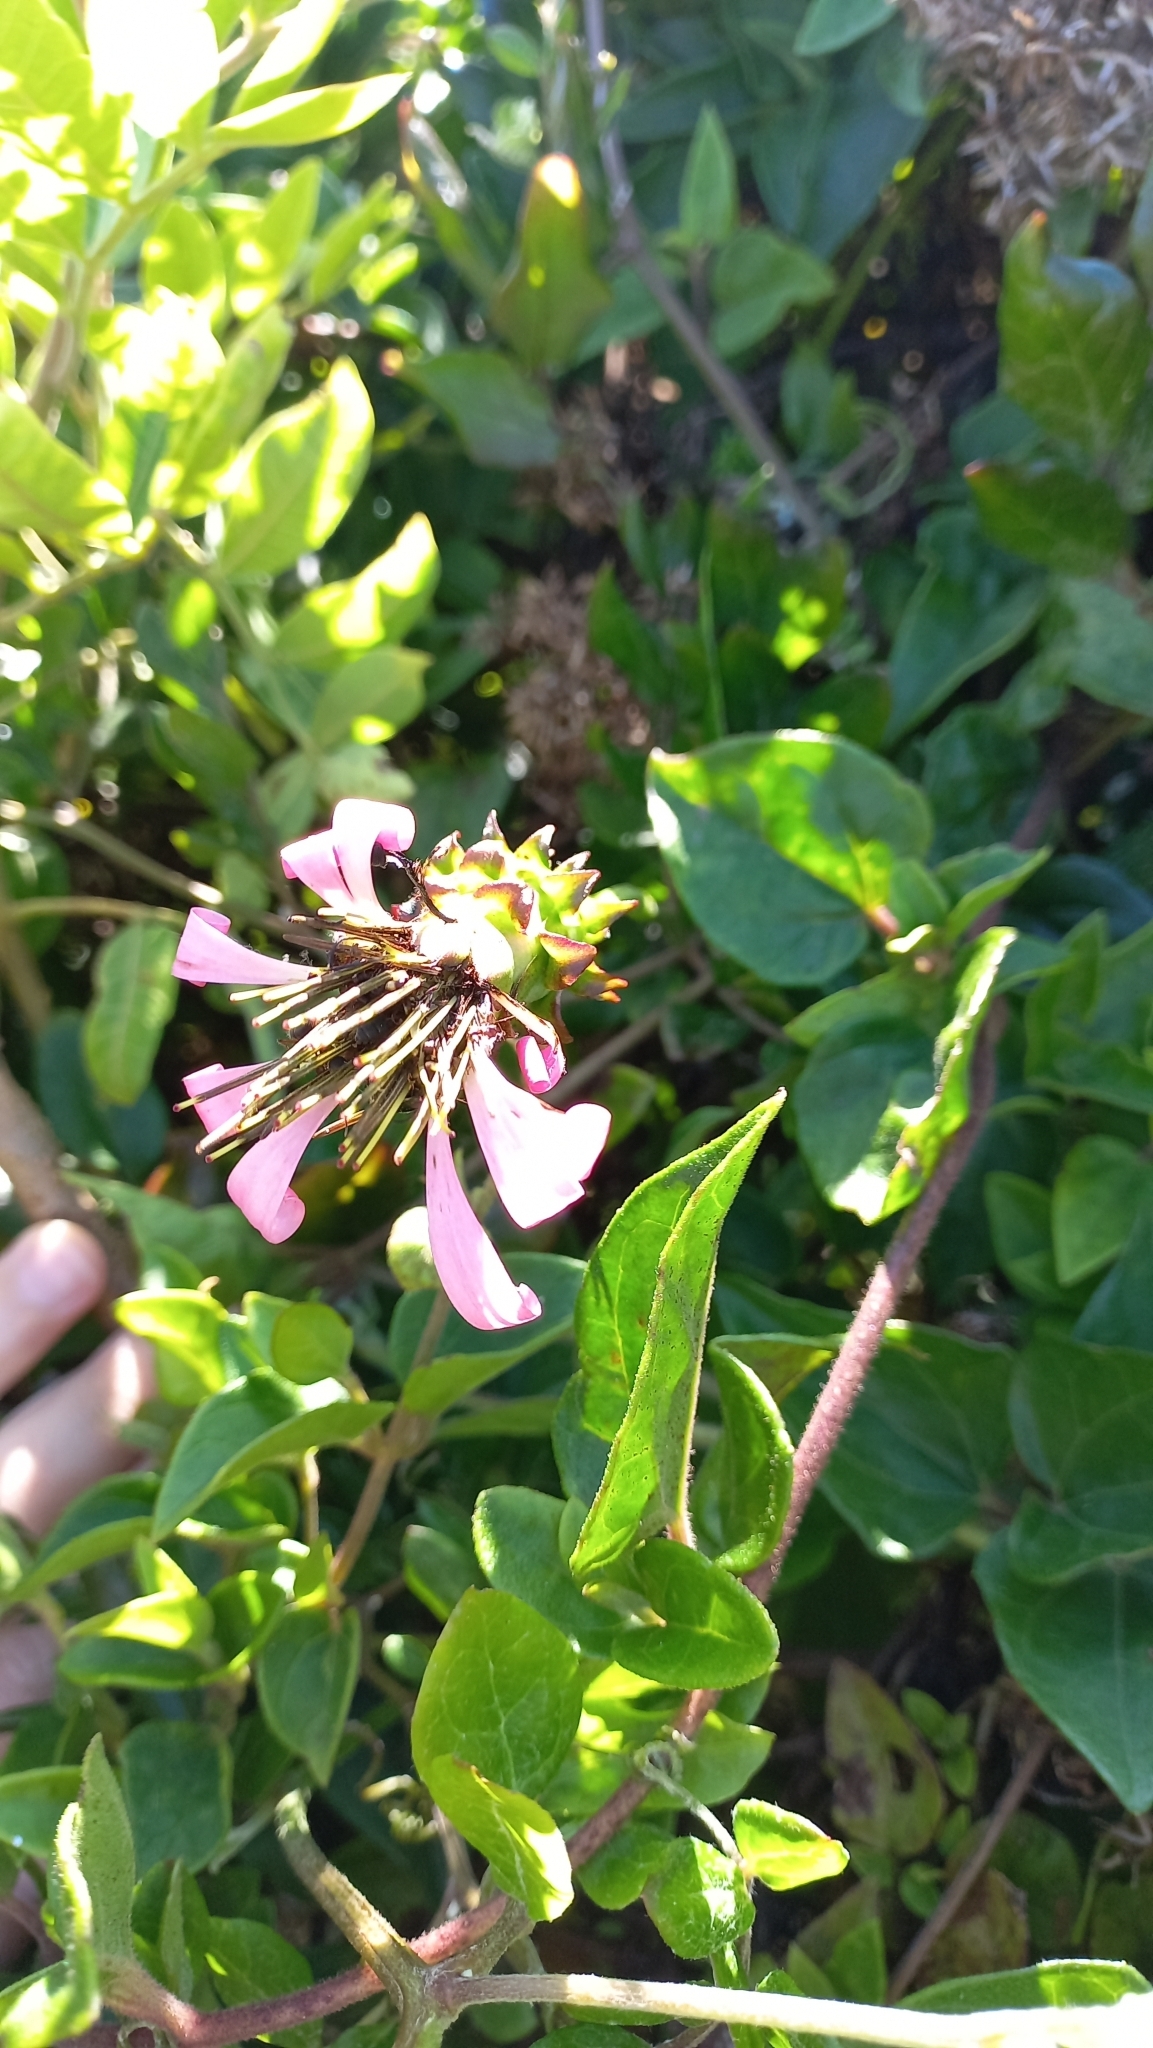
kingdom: Plantae
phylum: Tracheophyta
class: Magnoliopsida
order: Asterales
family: Asteraceae
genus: Mutisia
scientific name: Mutisia speciosa
